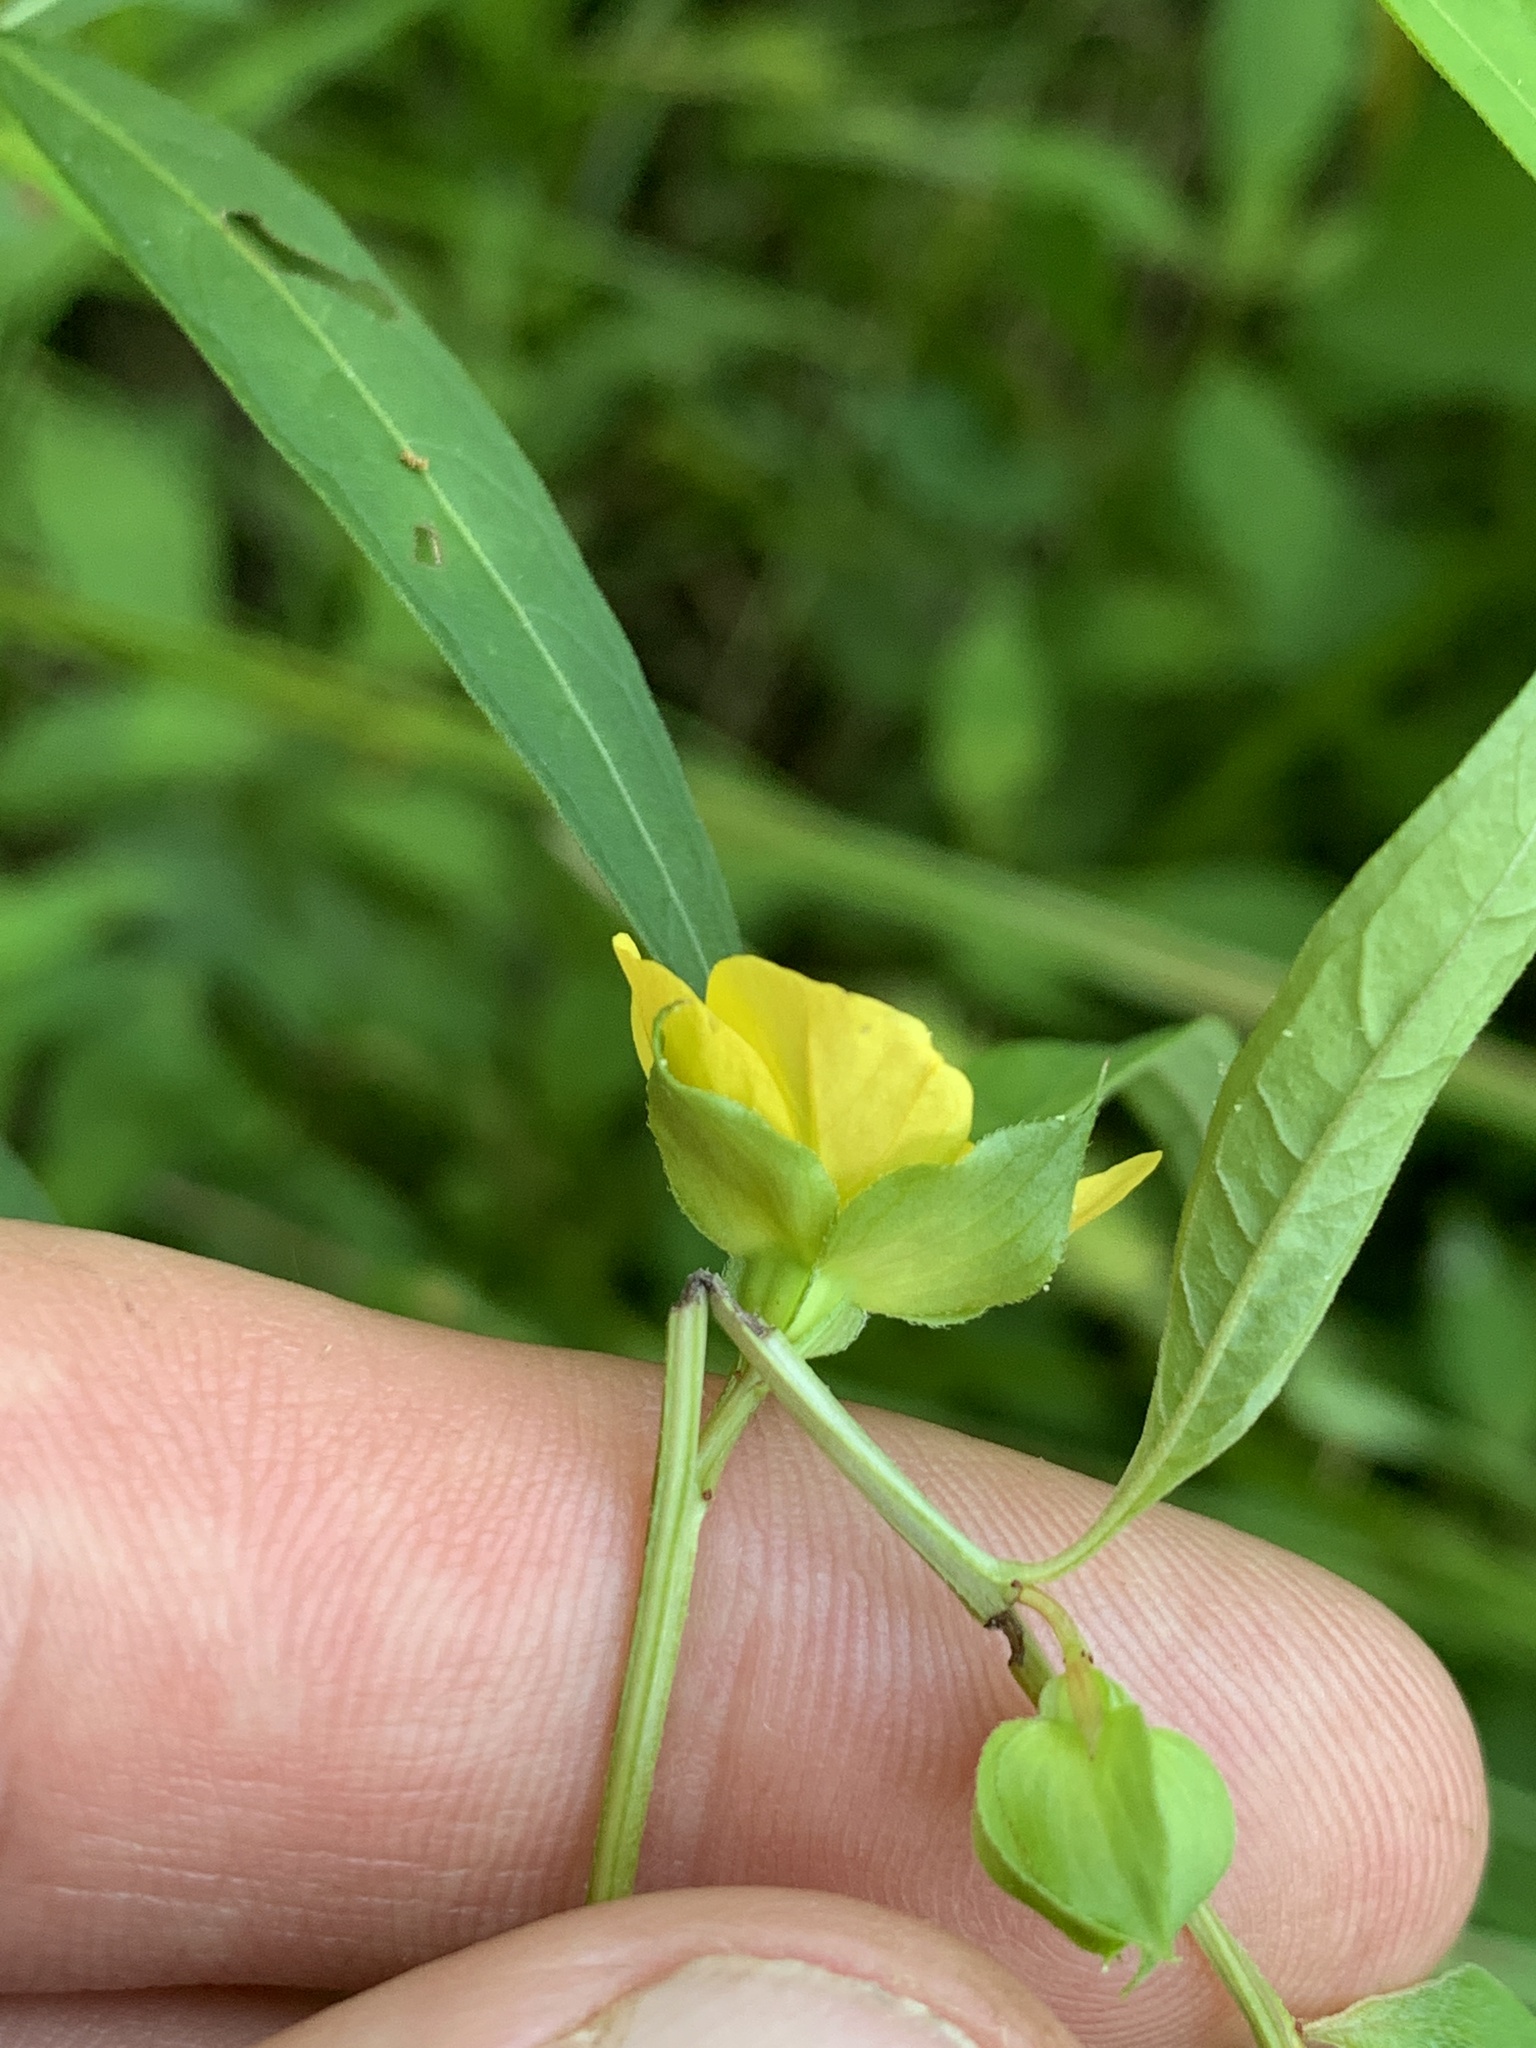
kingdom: Plantae
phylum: Tracheophyta
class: Magnoliopsida
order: Myrtales
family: Onagraceae
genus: Ludwigia
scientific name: Ludwigia alternifolia
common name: Rattlebox
